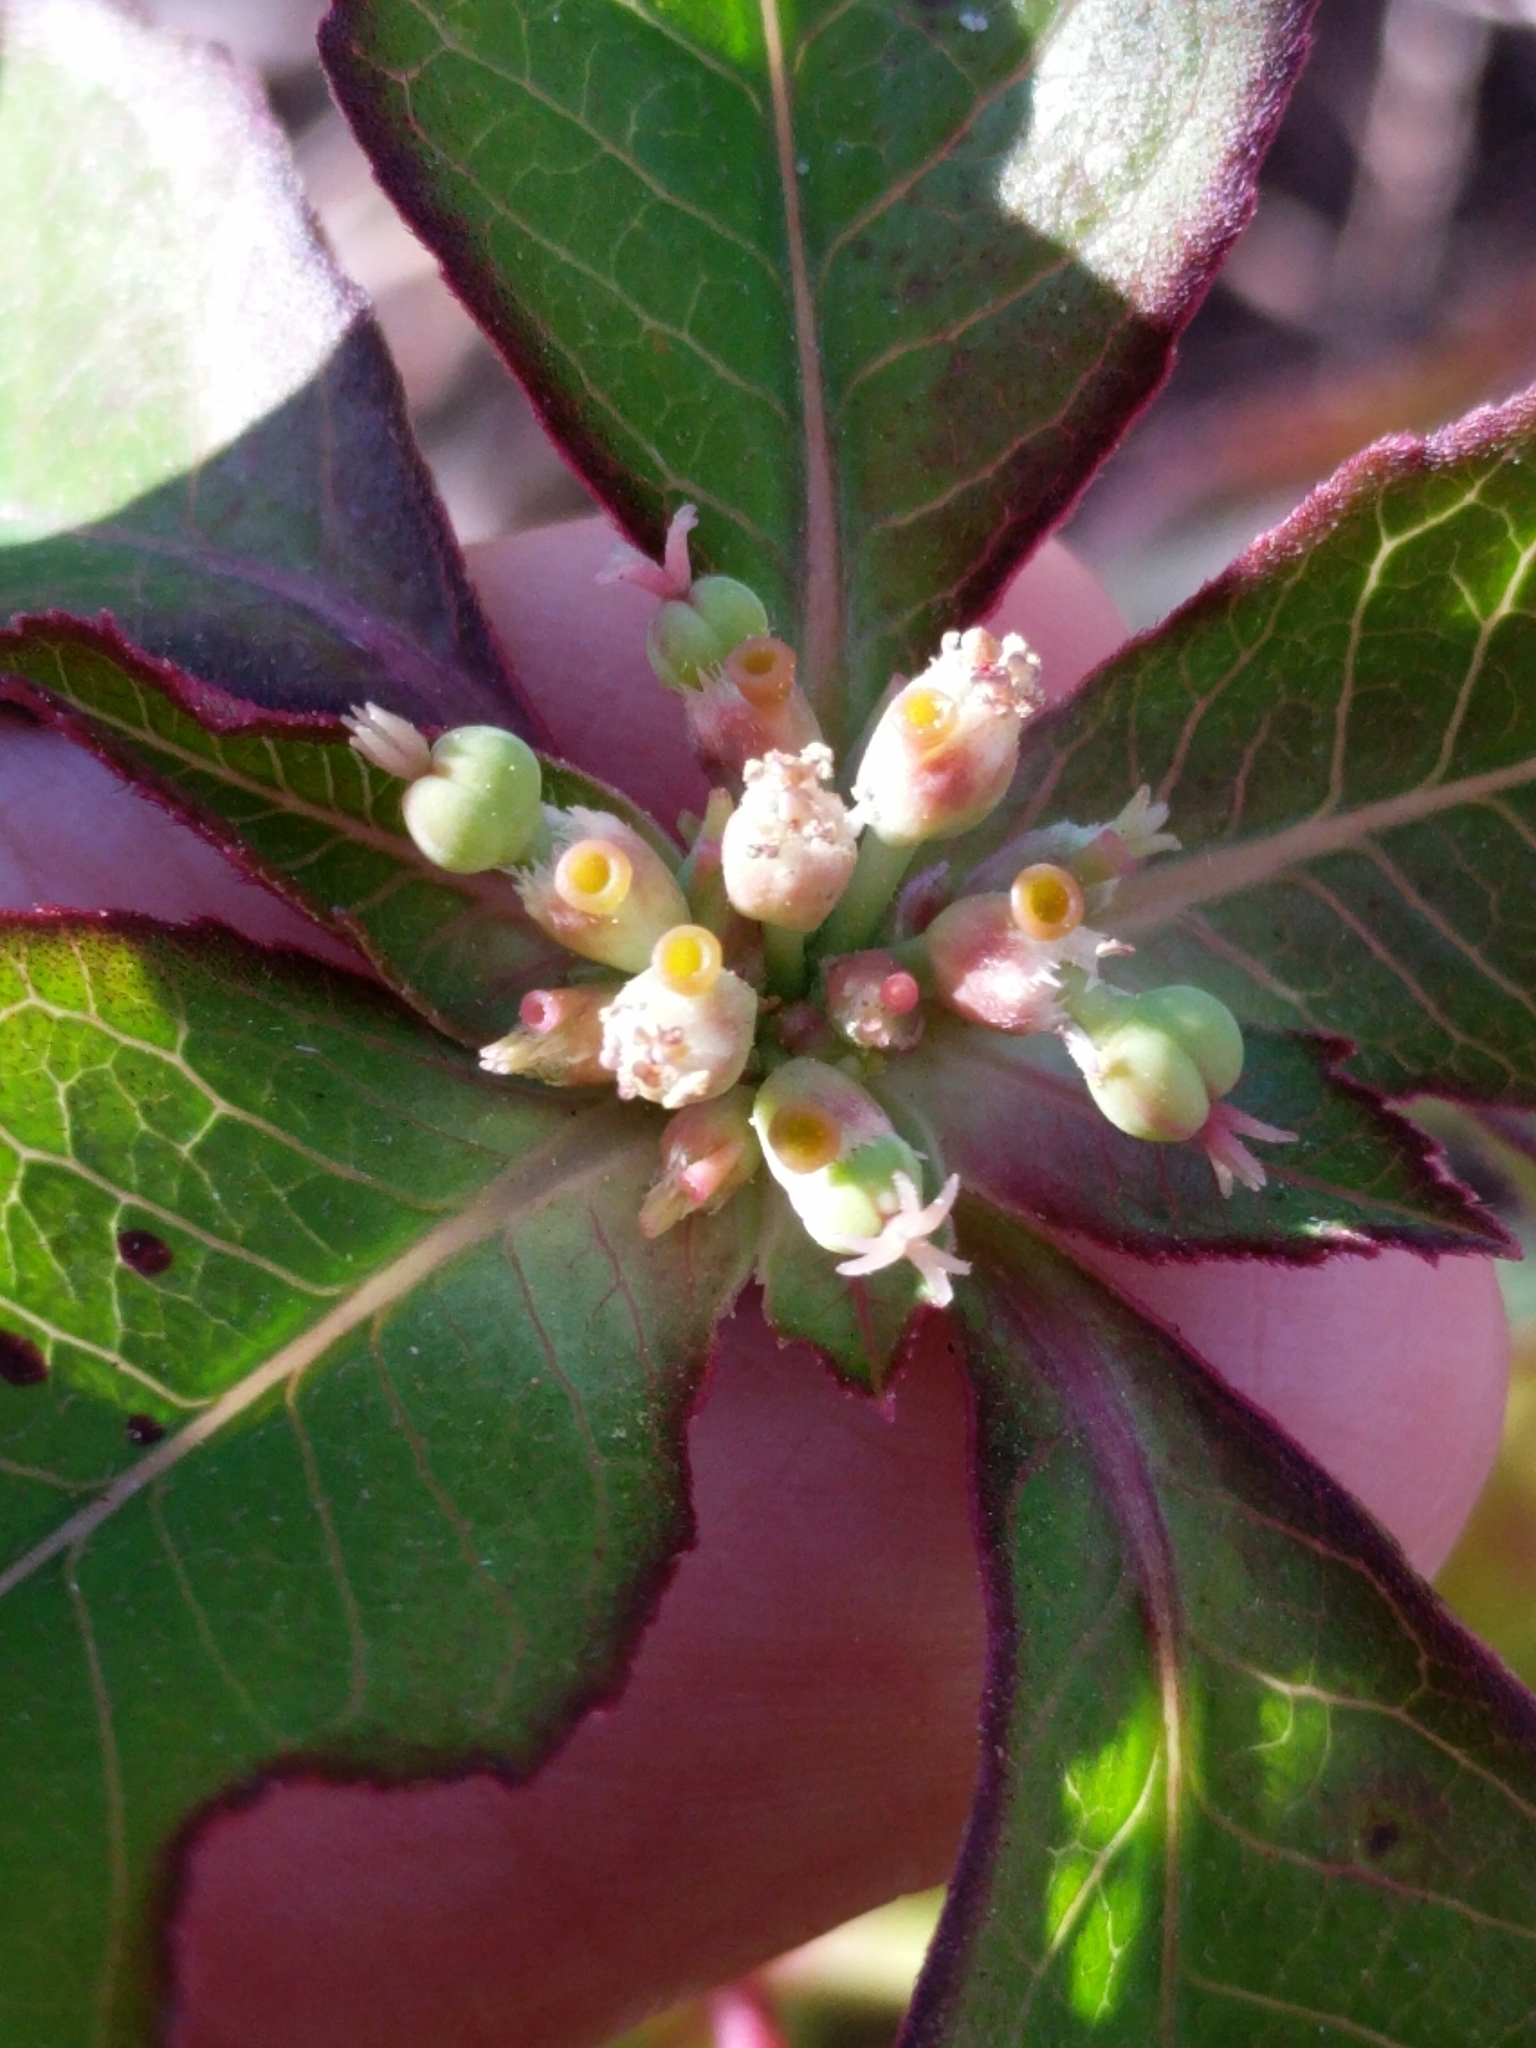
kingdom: Plantae
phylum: Tracheophyta
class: Magnoliopsida
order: Malpighiales
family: Euphorbiaceae
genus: Euphorbia
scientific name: Euphorbia heterophylla
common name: Mexican fireplant
